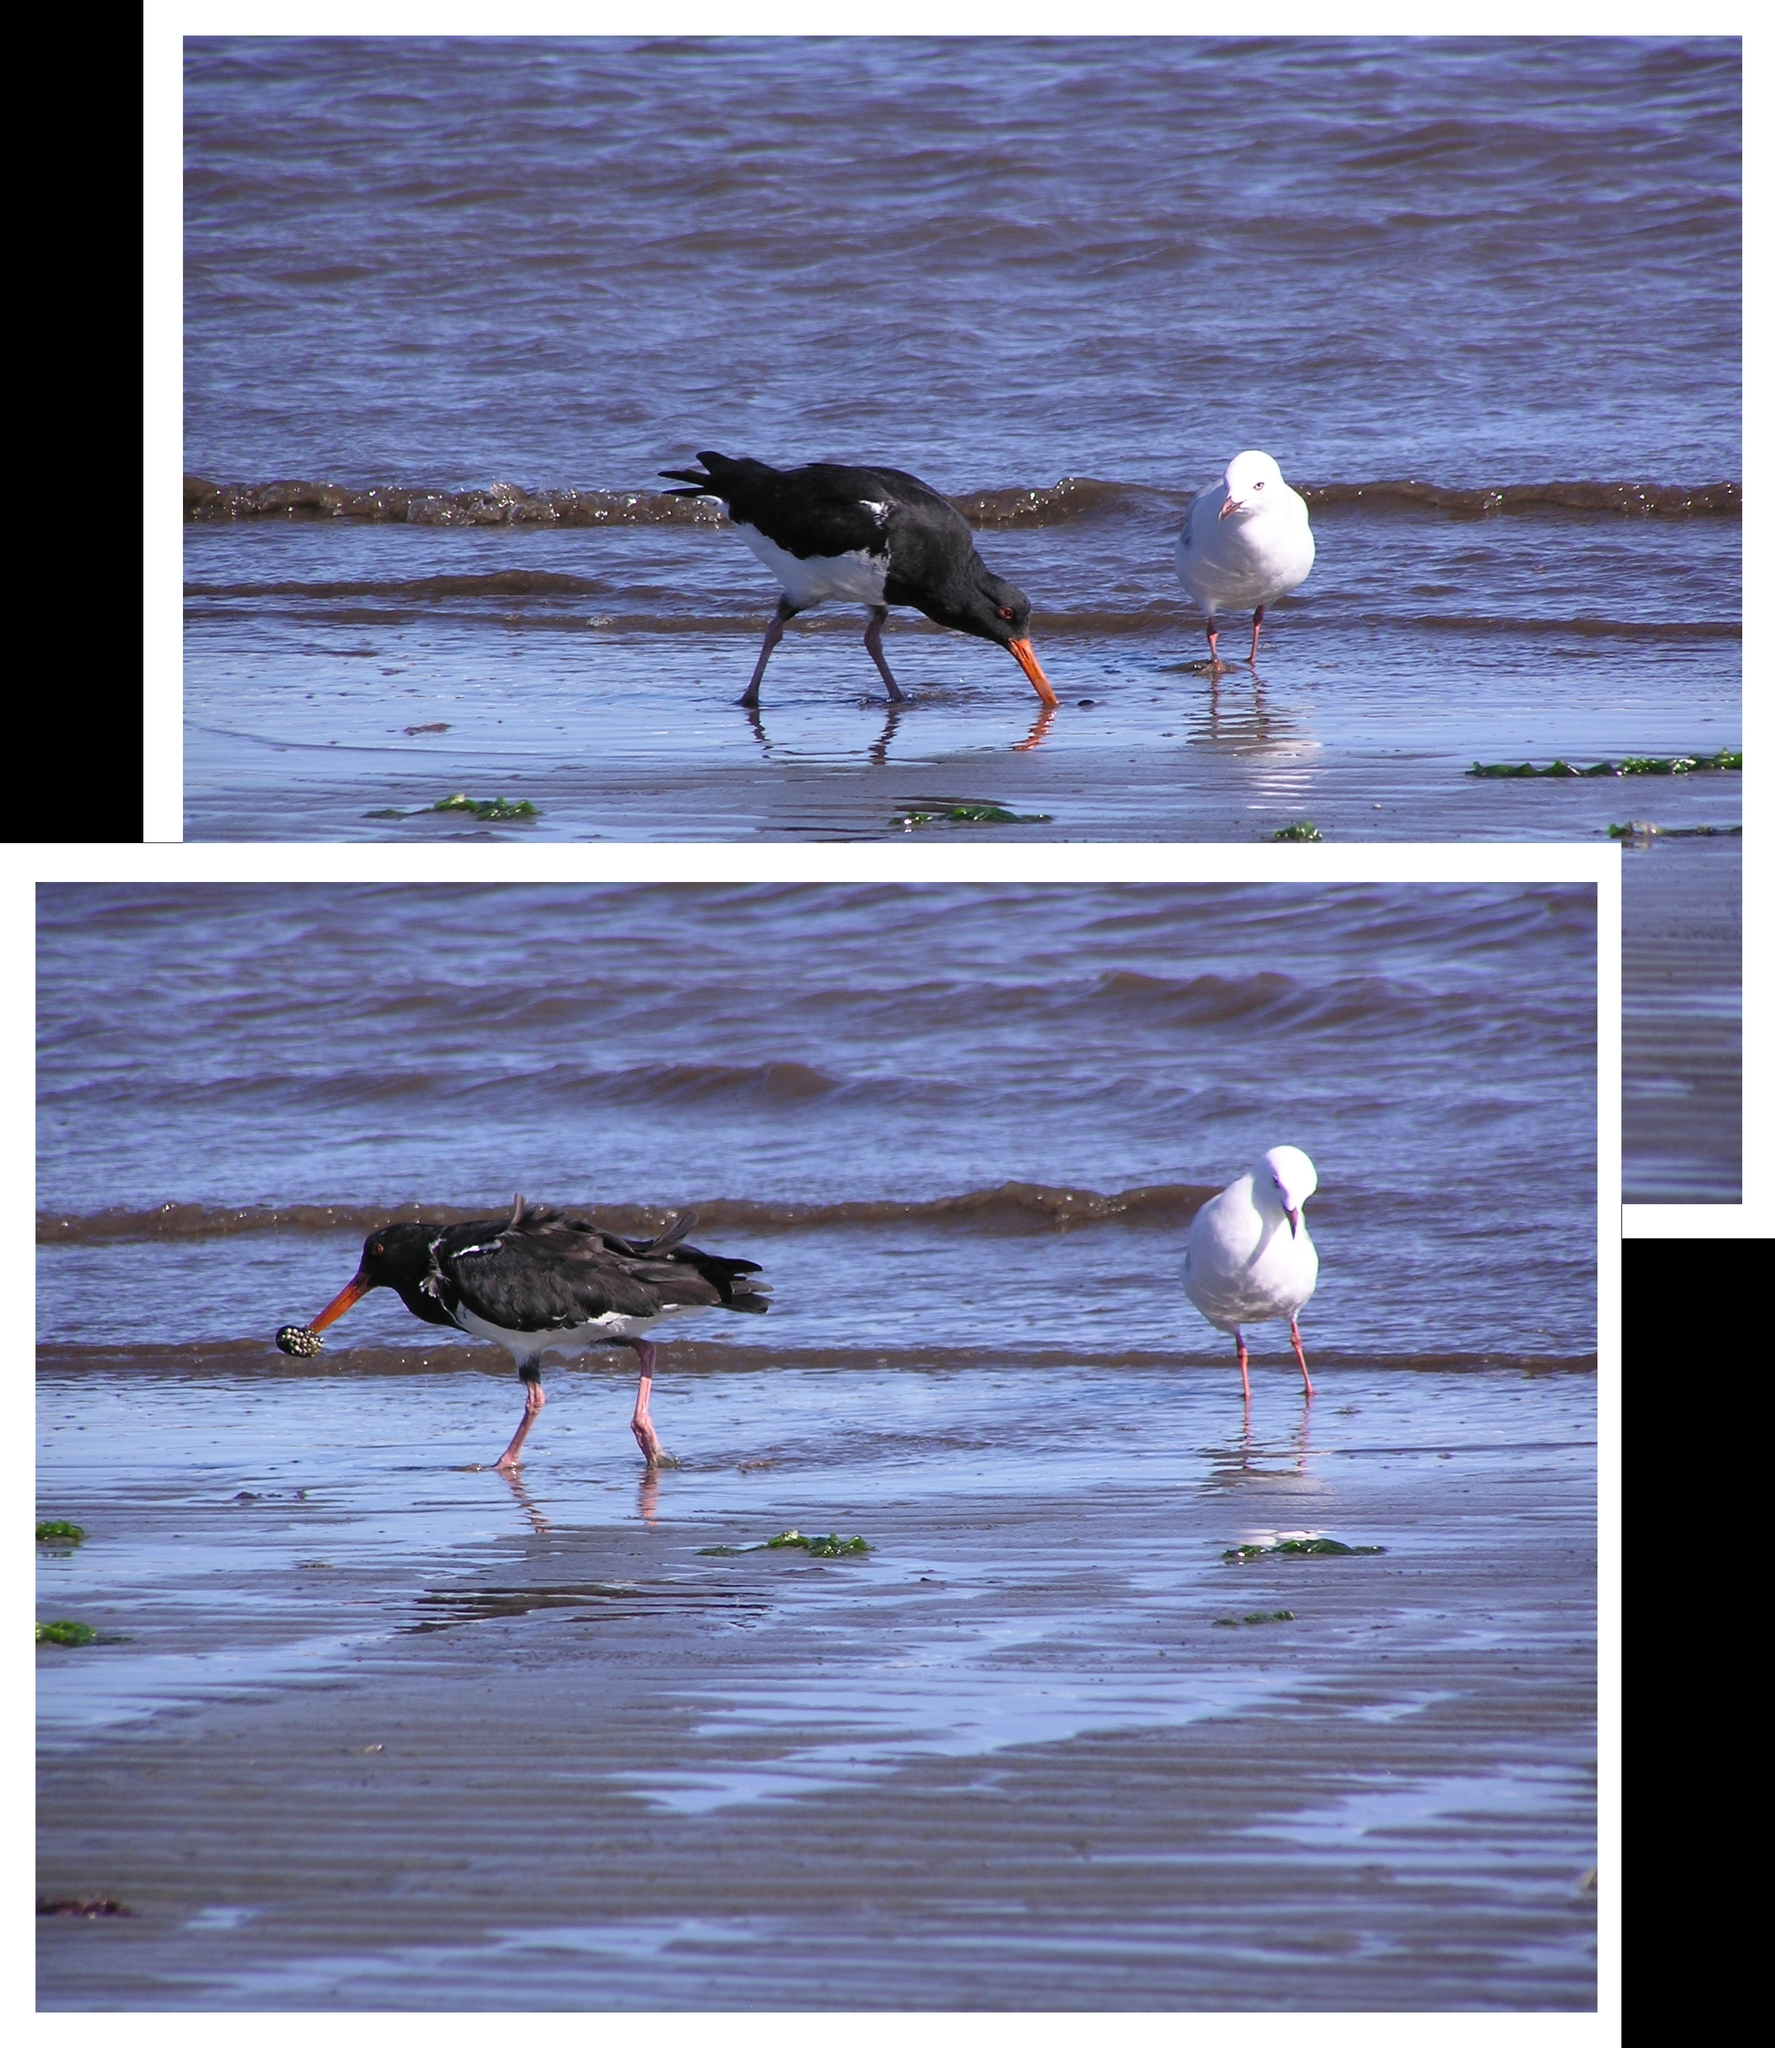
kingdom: Animalia
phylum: Chordata
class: Aves
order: Charadriiformes
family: Haematopodidae
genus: Haematopus
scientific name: Haematopus unicolor
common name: Variable oystercatcher
